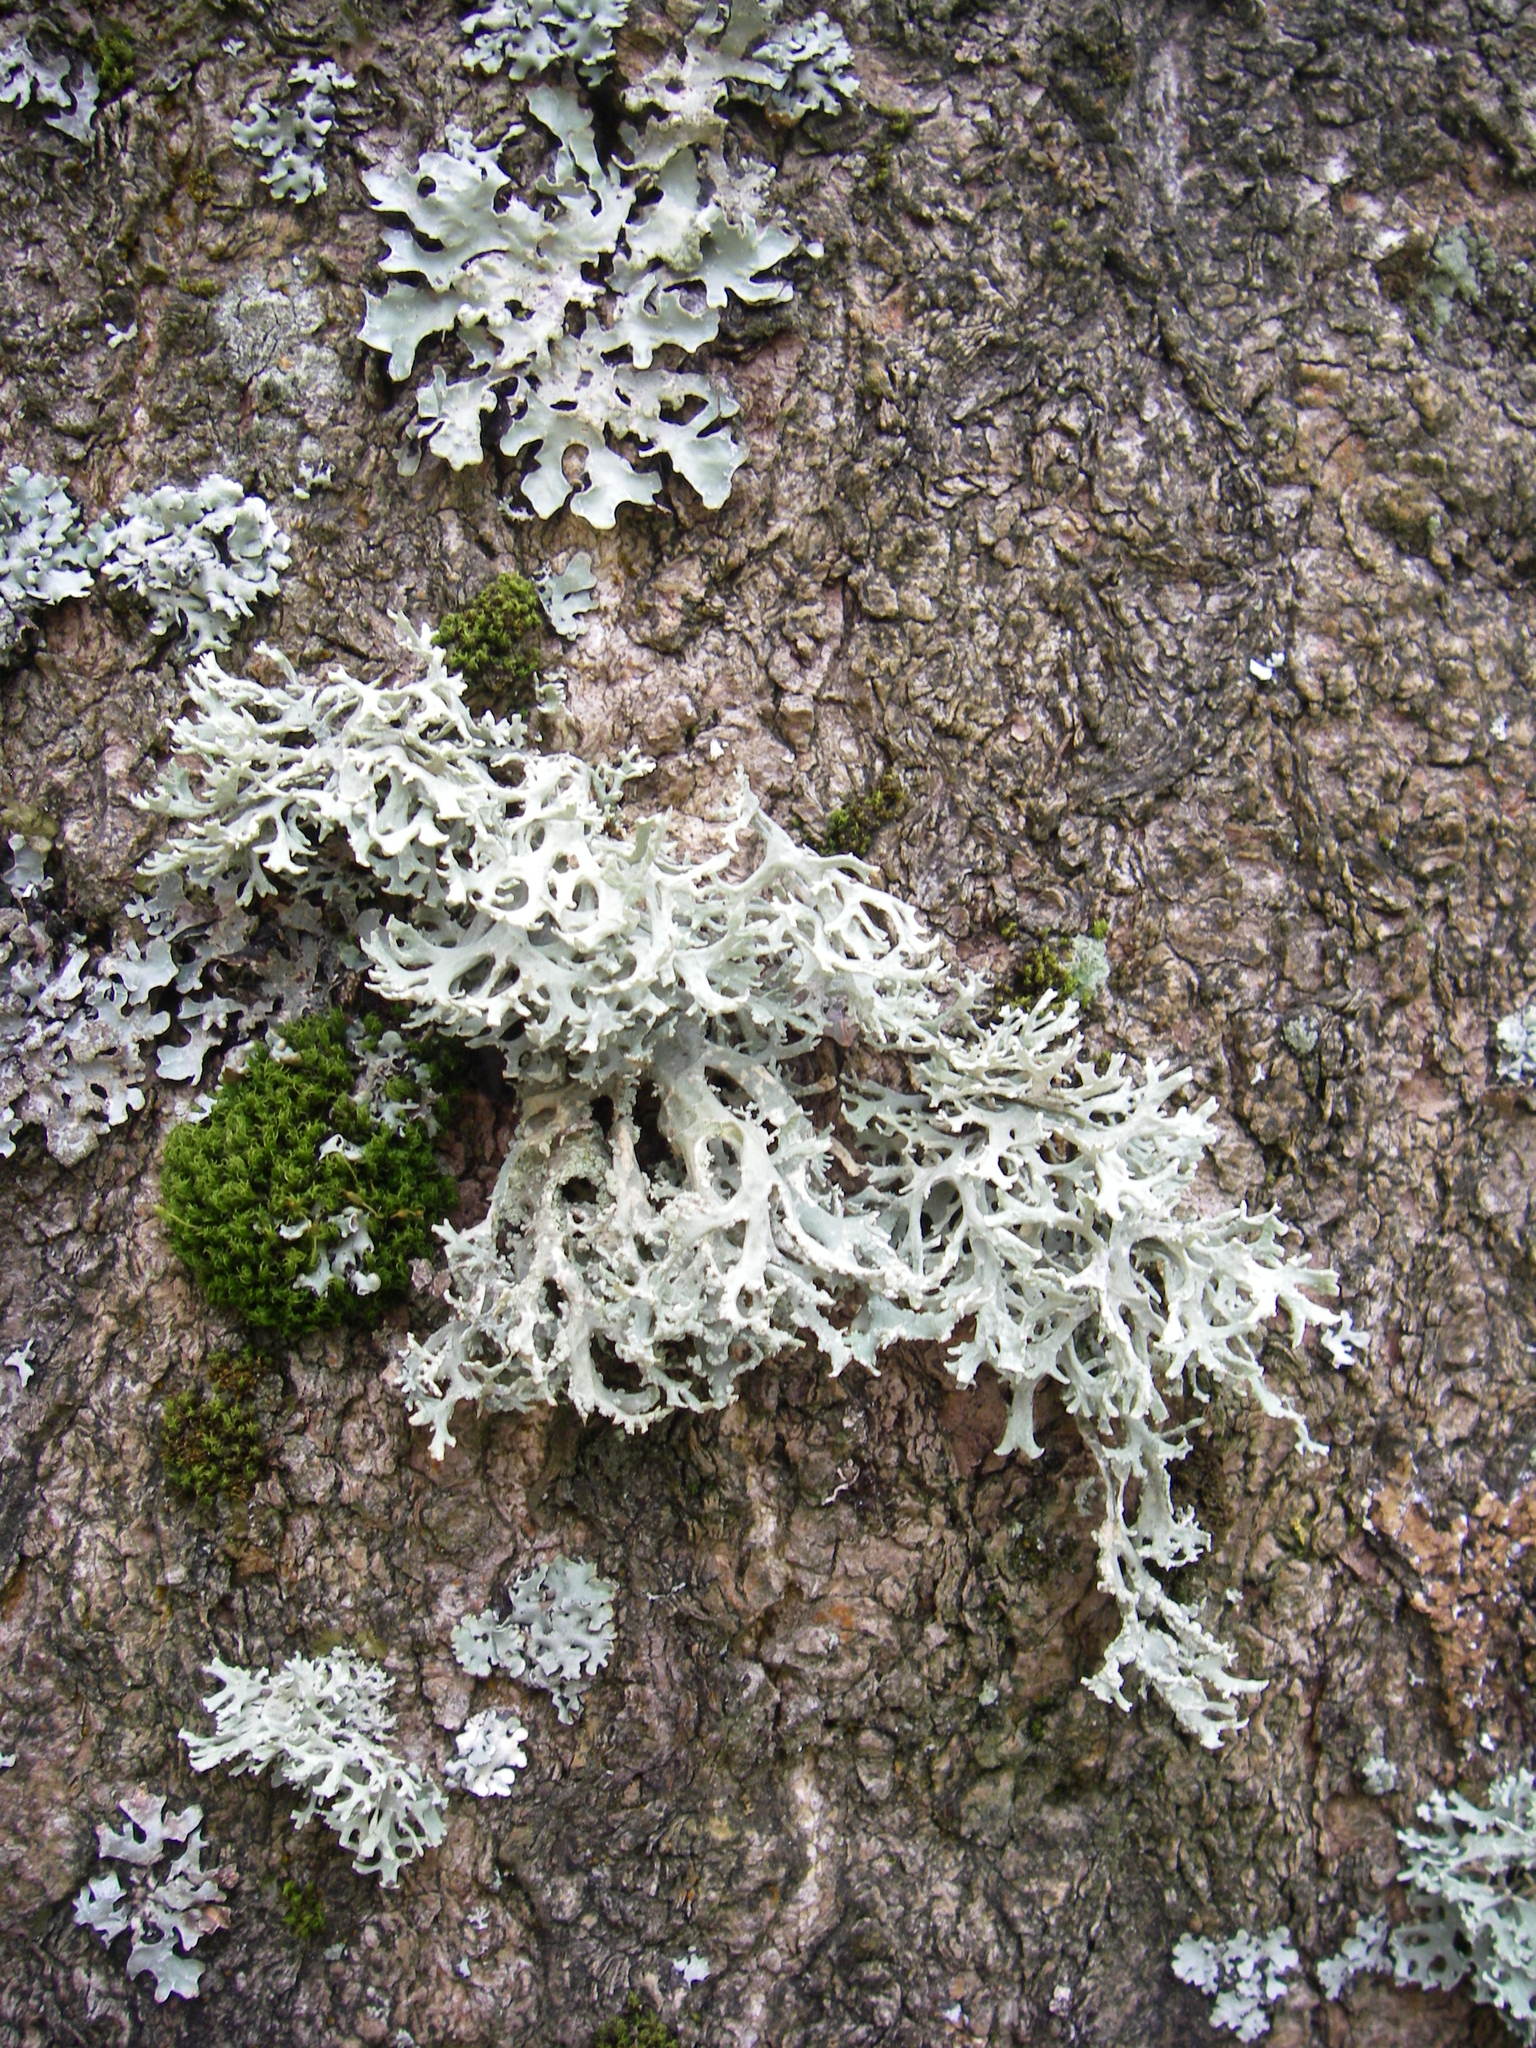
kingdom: Fungi
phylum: Ascomycota
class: Lecanoromycetes
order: Lecanorales
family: Parmeliaceae
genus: Evernia
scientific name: Evernia prunastri
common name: Oak moss
